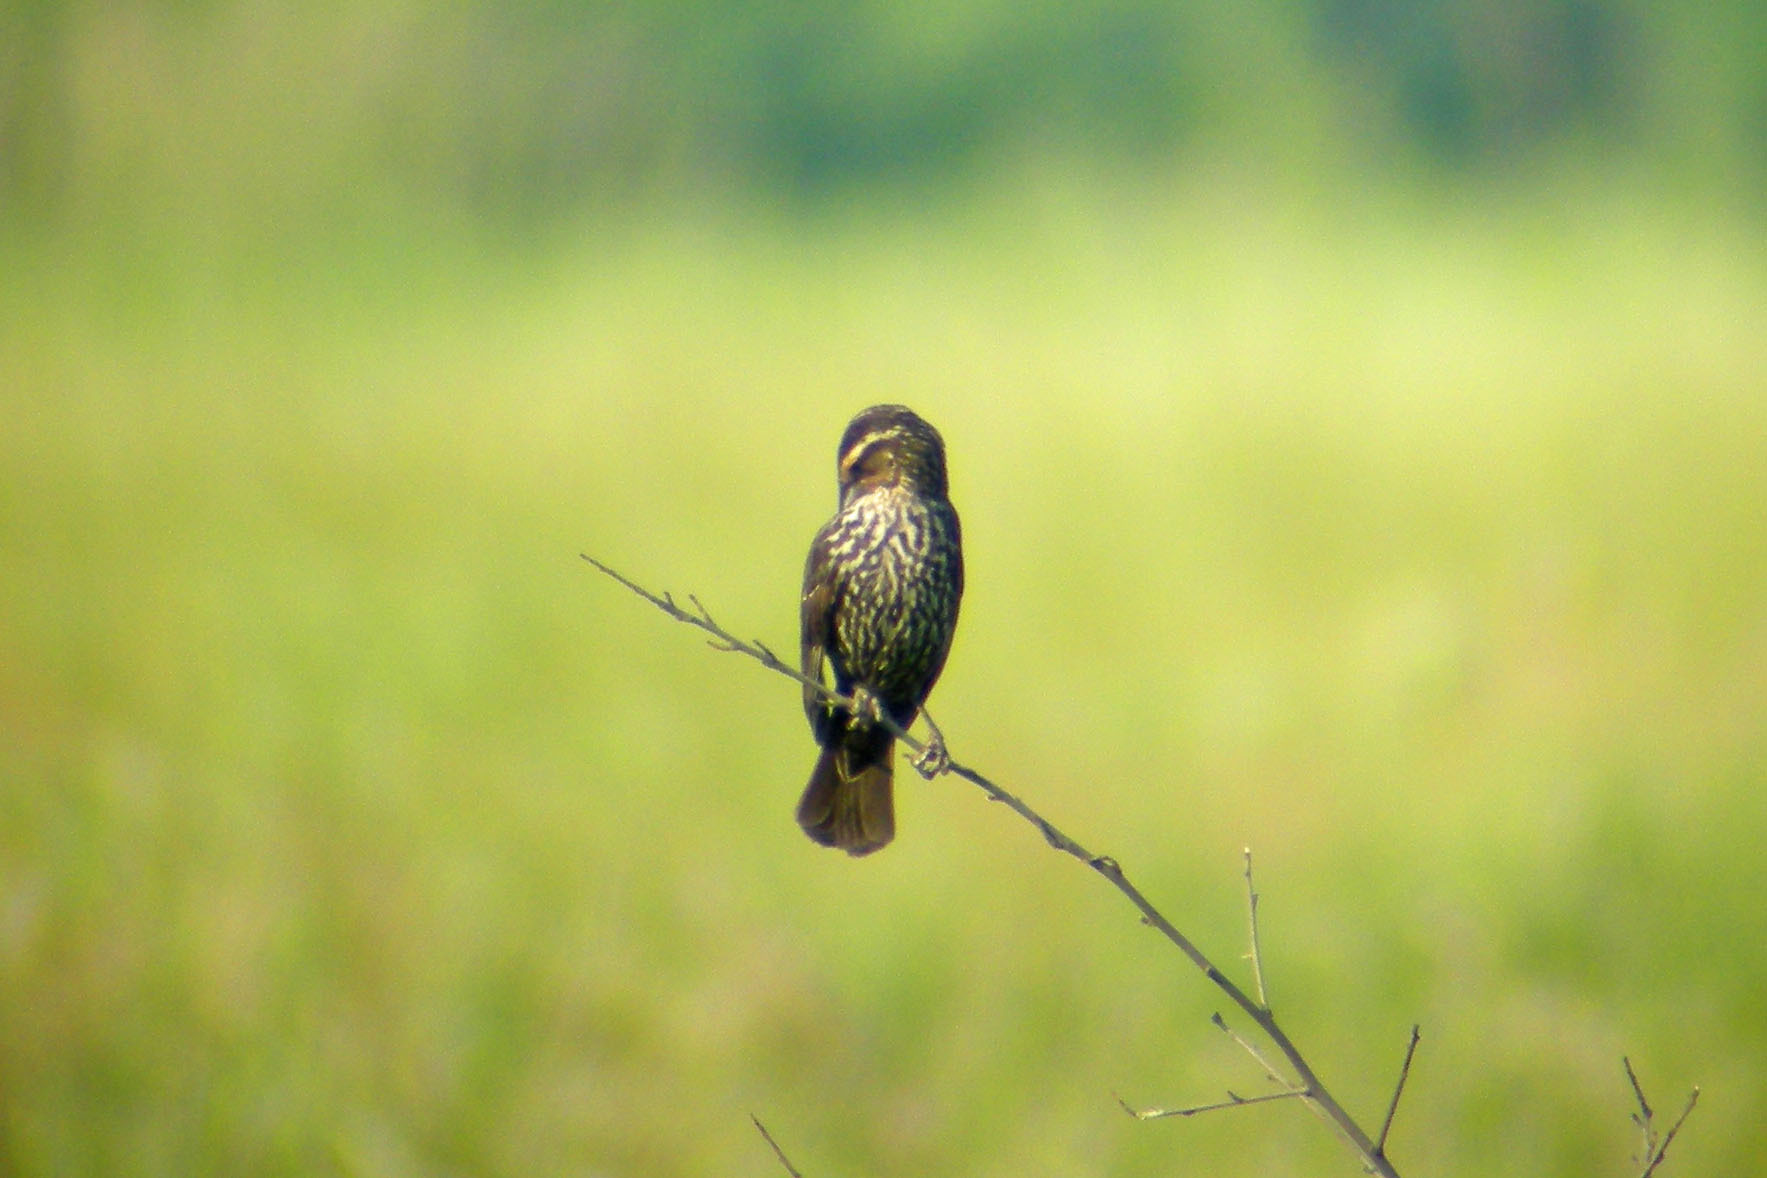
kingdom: Animalia
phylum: Chordata
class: Aves
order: Passeriformes
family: Icteridae
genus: Agelaius
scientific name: Agelaius phoeniceus
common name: Red-winged blackbird
